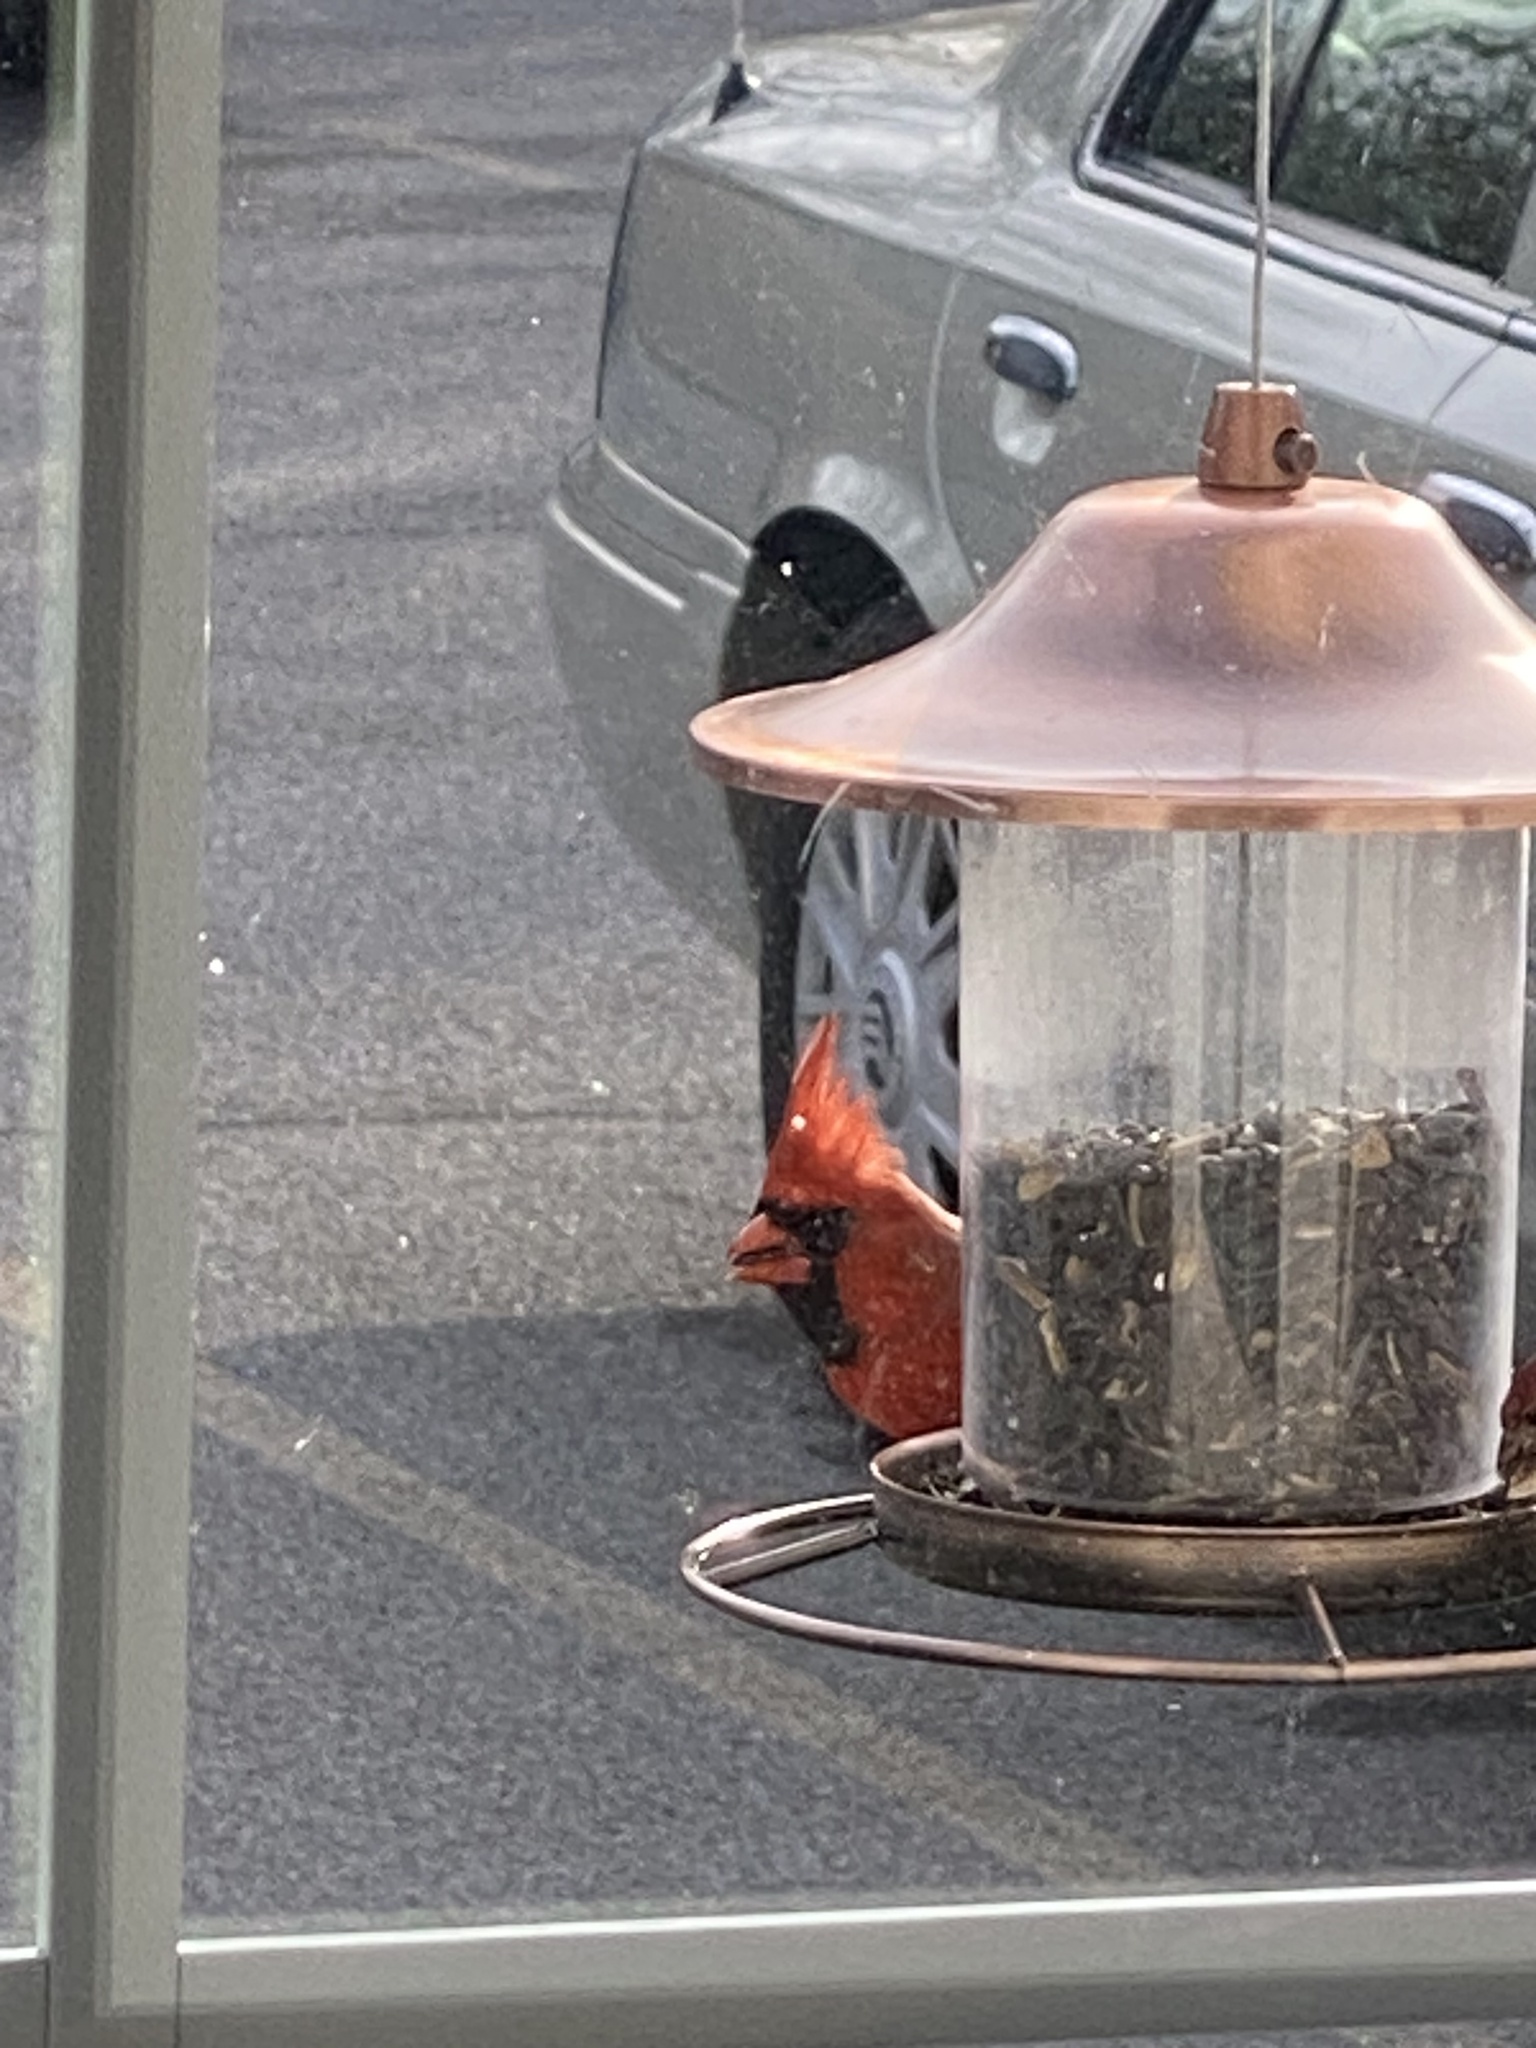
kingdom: Animalia
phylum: Chordata
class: Aves
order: Passeriformes
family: Cardinalidae
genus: Cardinalis
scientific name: Cardinalis cardinalis
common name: Northern cardinal
